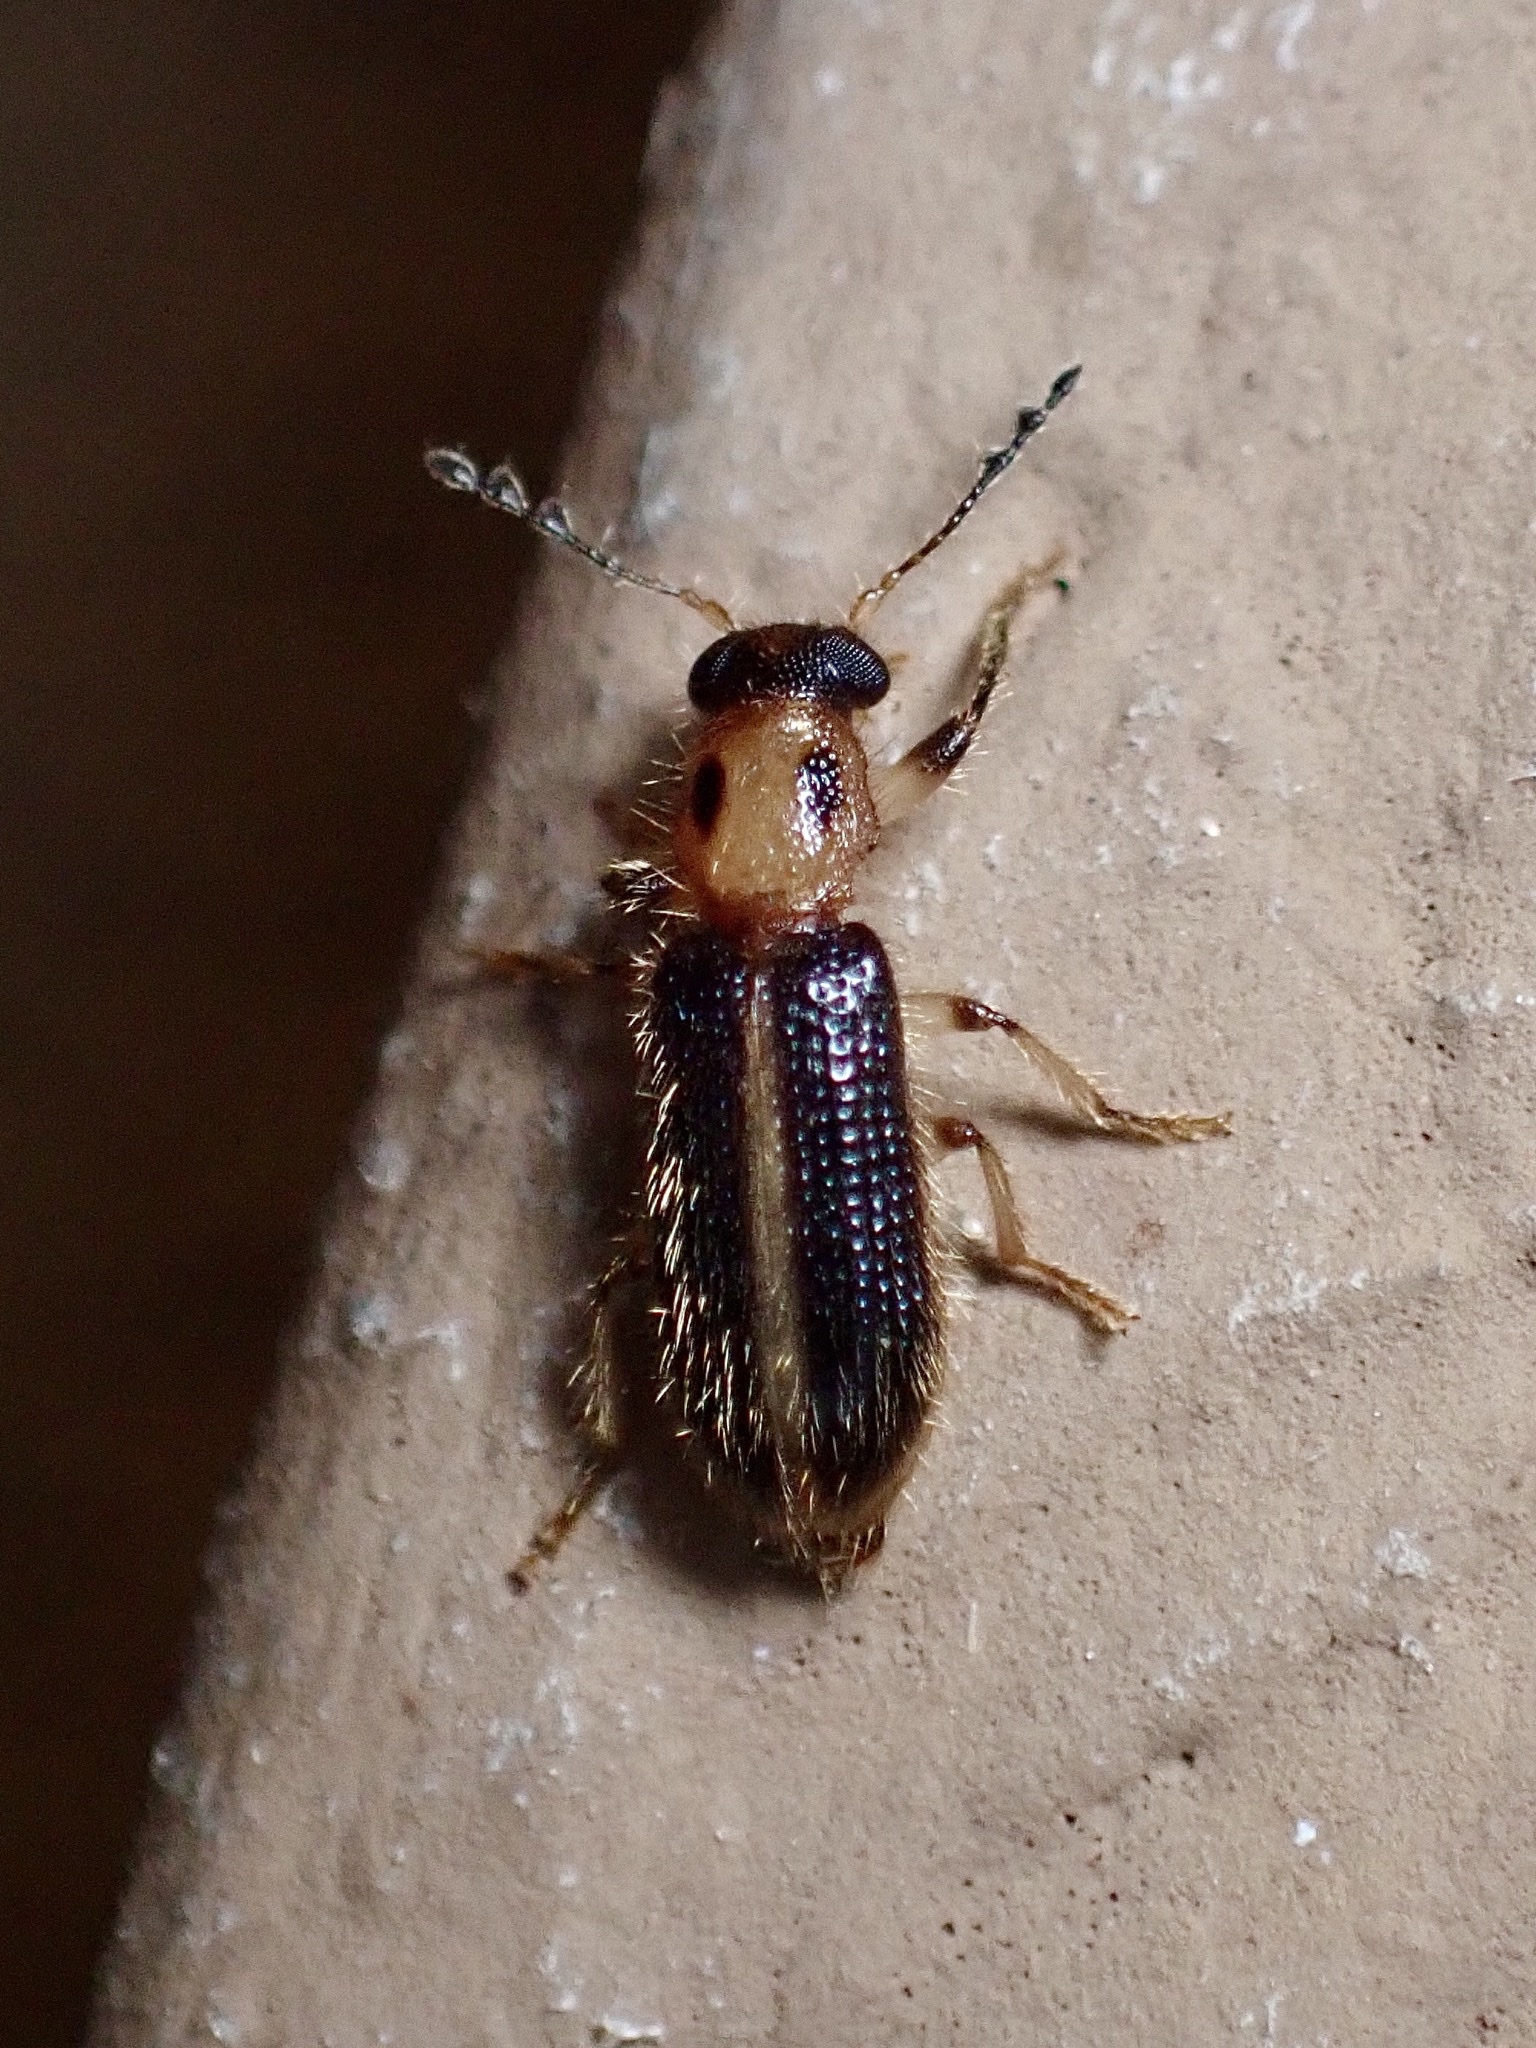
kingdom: Animalia
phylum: Arthropoda
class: Insecta
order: Coleoptera
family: Cleridae
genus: Cregya
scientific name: Cregya oculata
